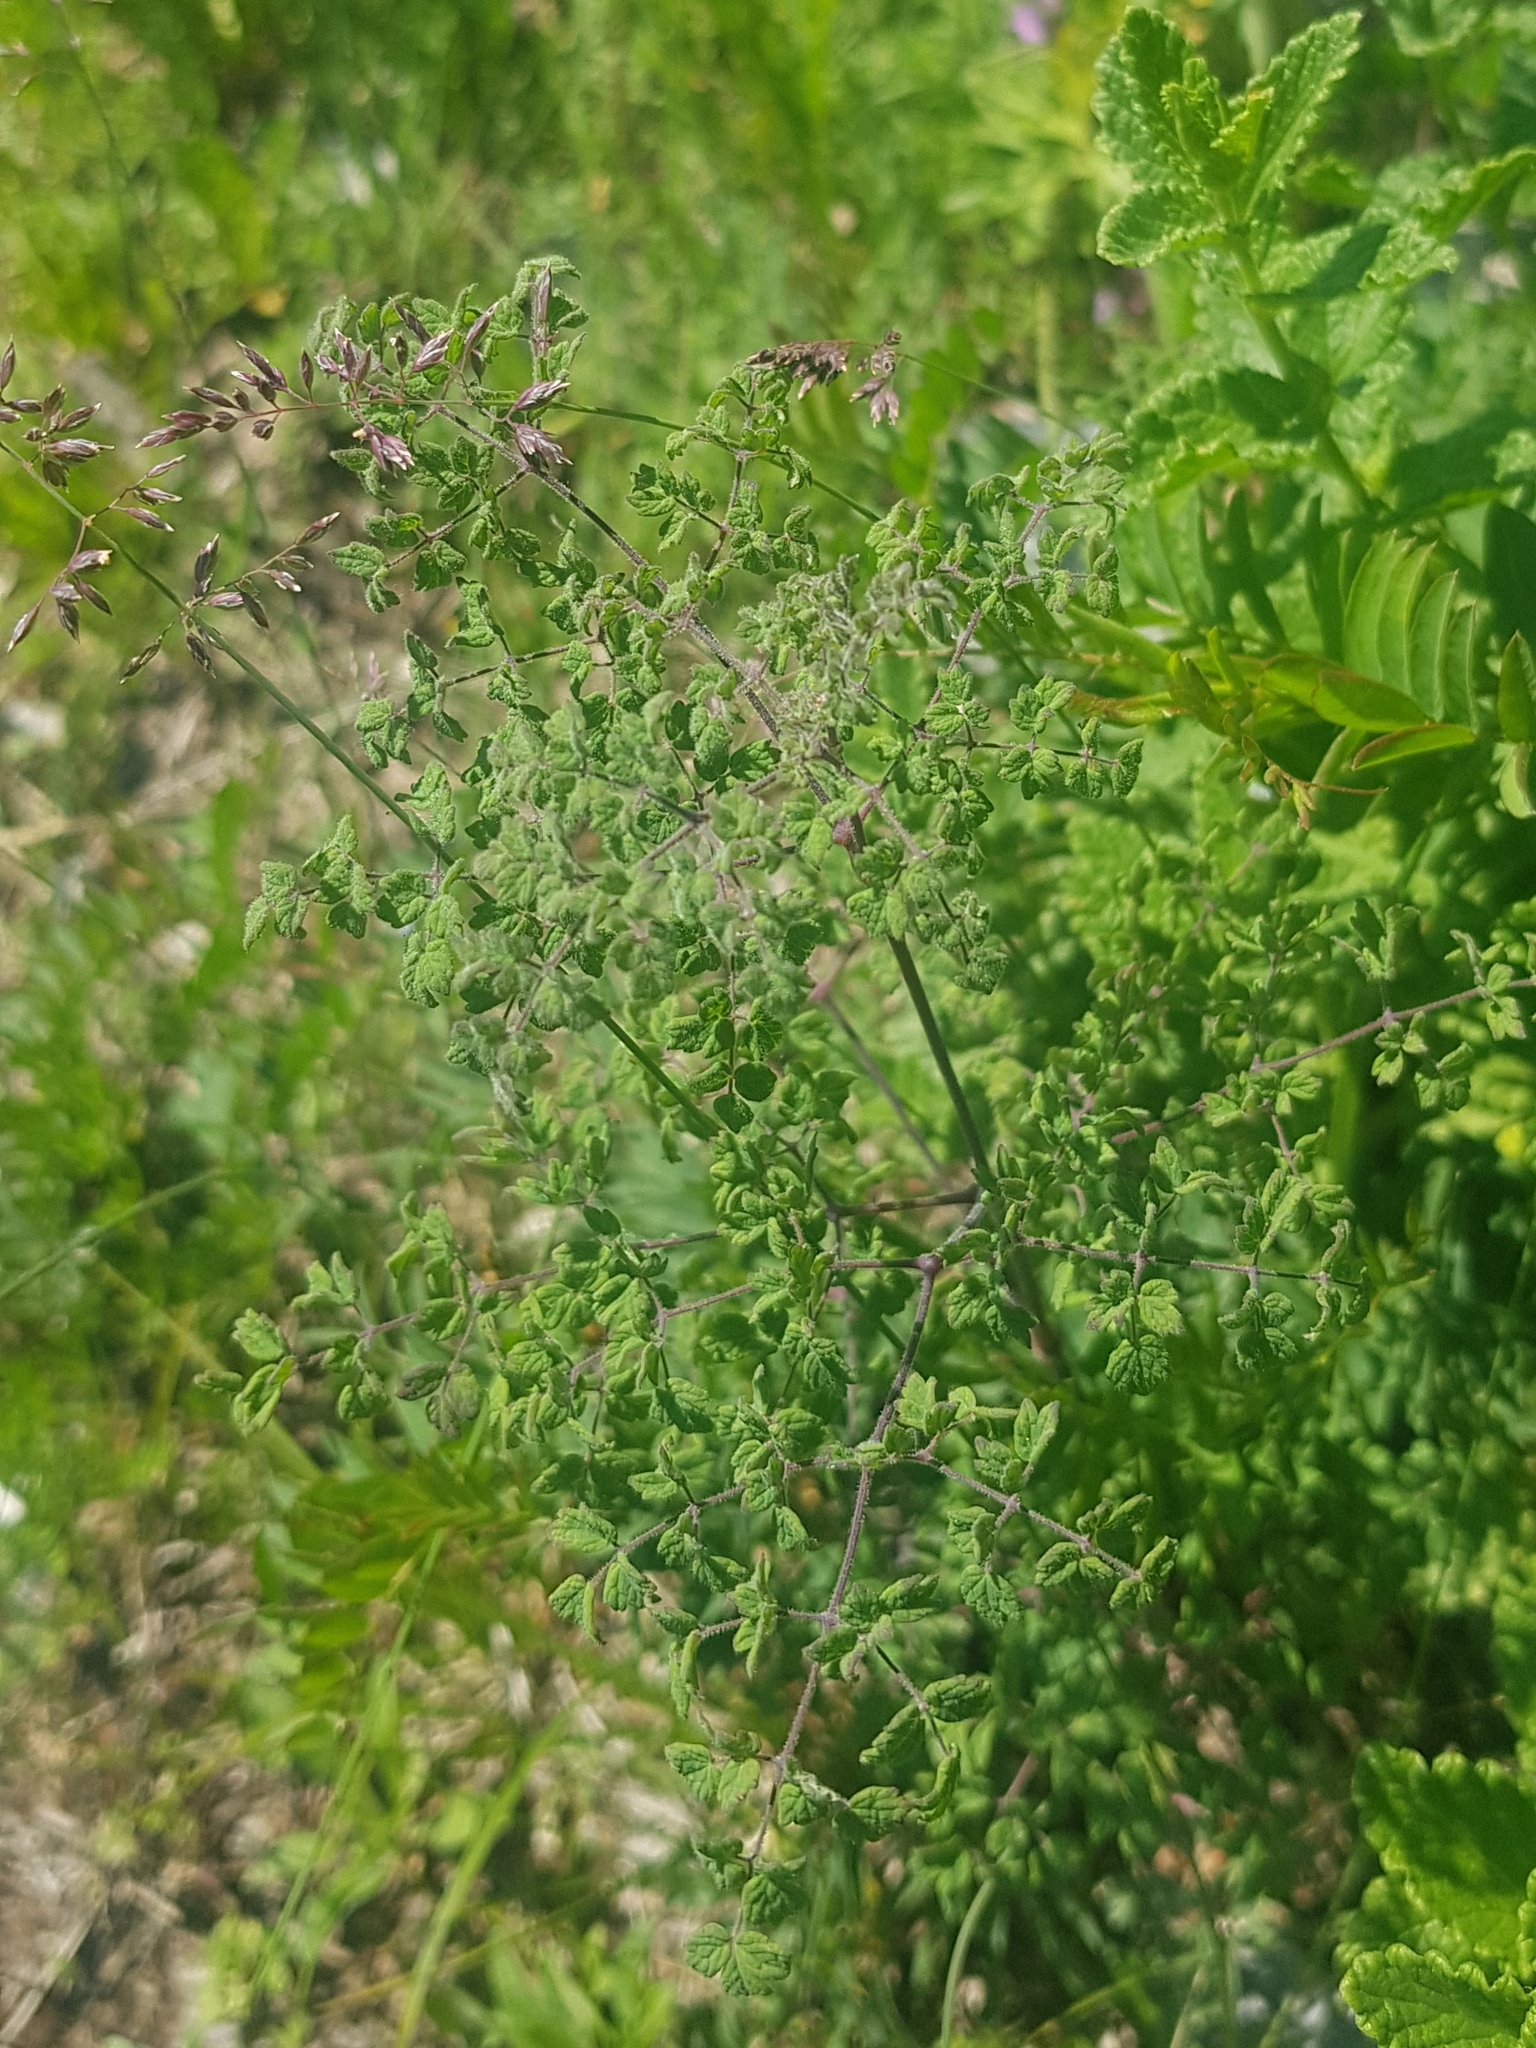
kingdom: Plantae
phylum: Tracheophyta
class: Magnoliopsida
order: Ranunculales
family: Ranunculaceae
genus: Thalictrum
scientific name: Thalictrum foetidum
